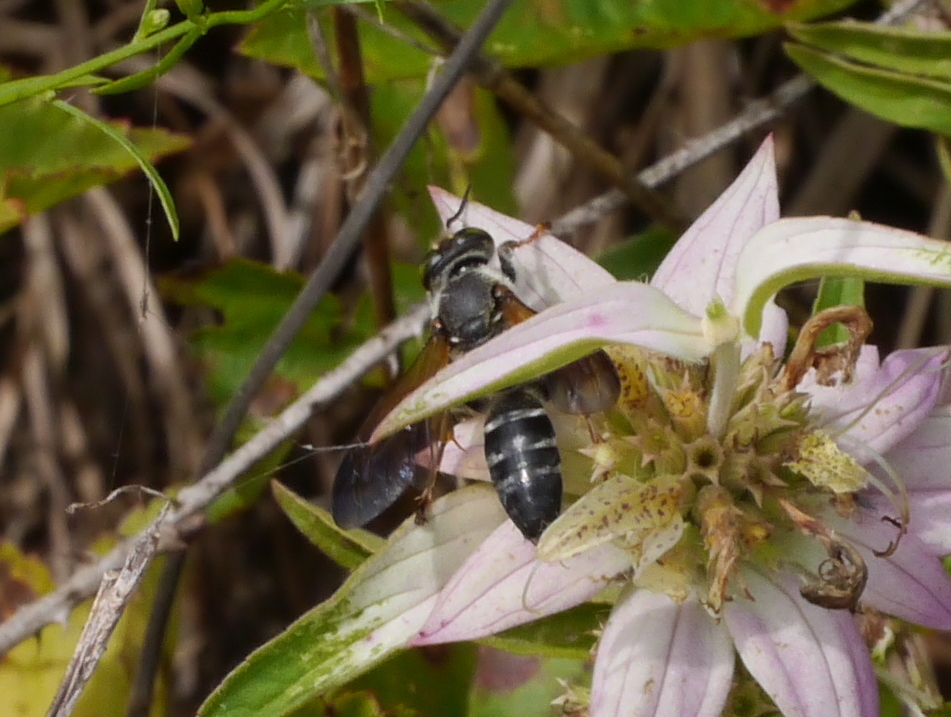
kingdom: Animalia
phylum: Arthropoda
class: Insecta
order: Hymenoptera
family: Crabronidae
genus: Tachytes
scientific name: Tachytes
